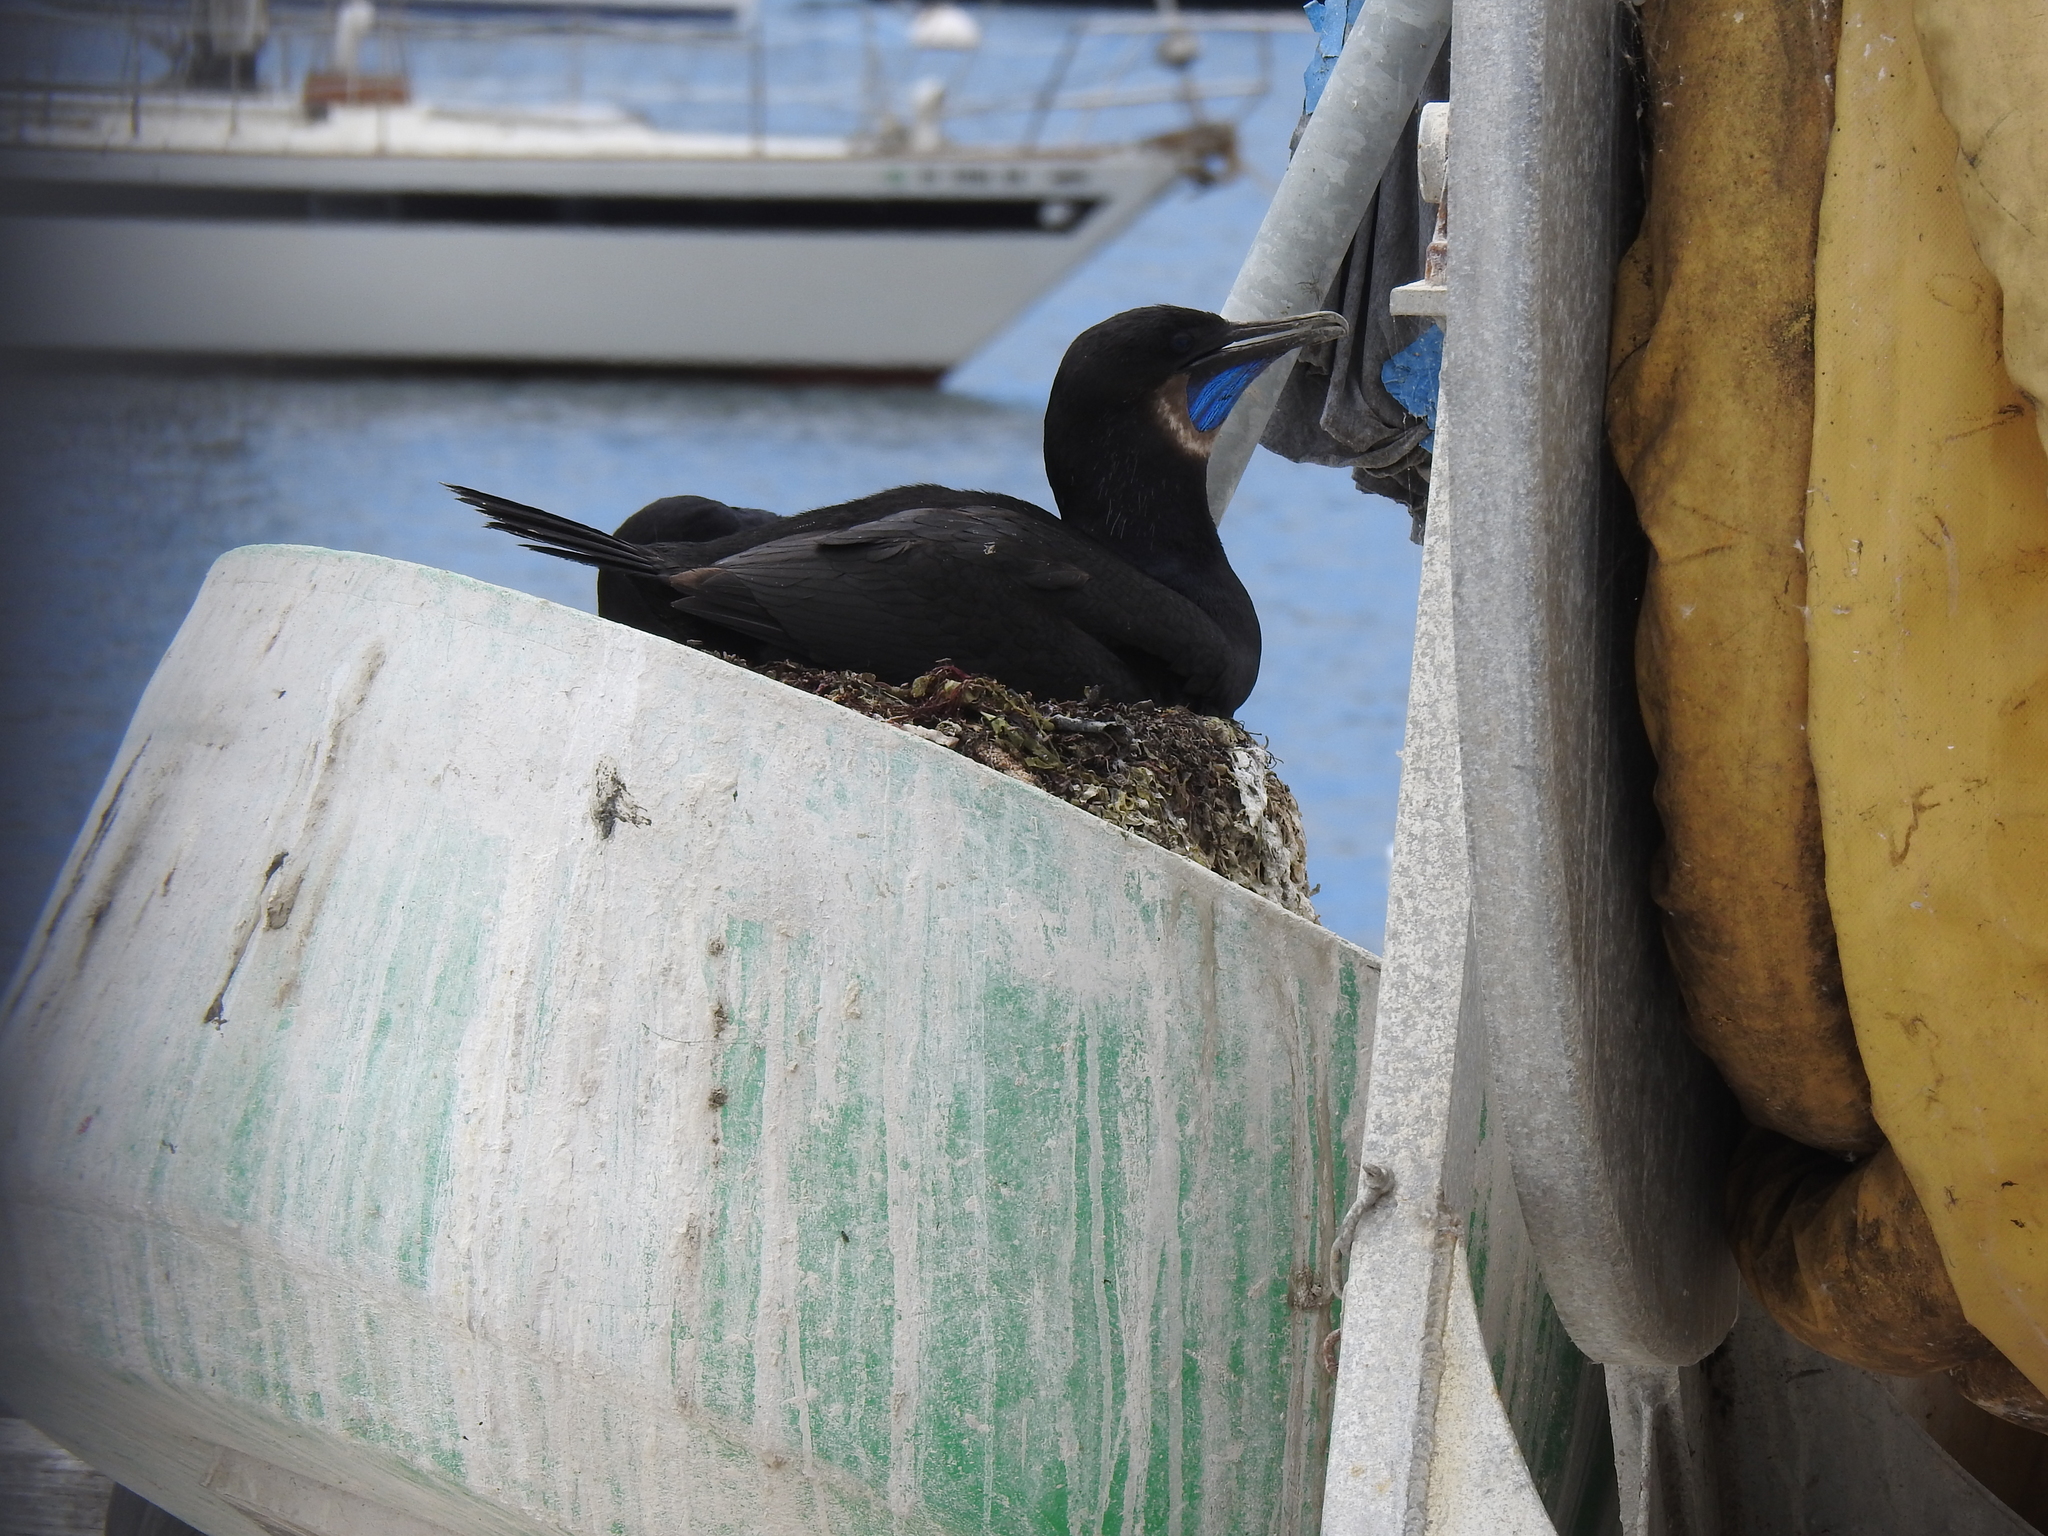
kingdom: Animalia
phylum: Chordata
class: Aves
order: Suliformes
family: Phalacrocoracidae
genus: Urile
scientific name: Urile penicillatus
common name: Brandt's cormorant
